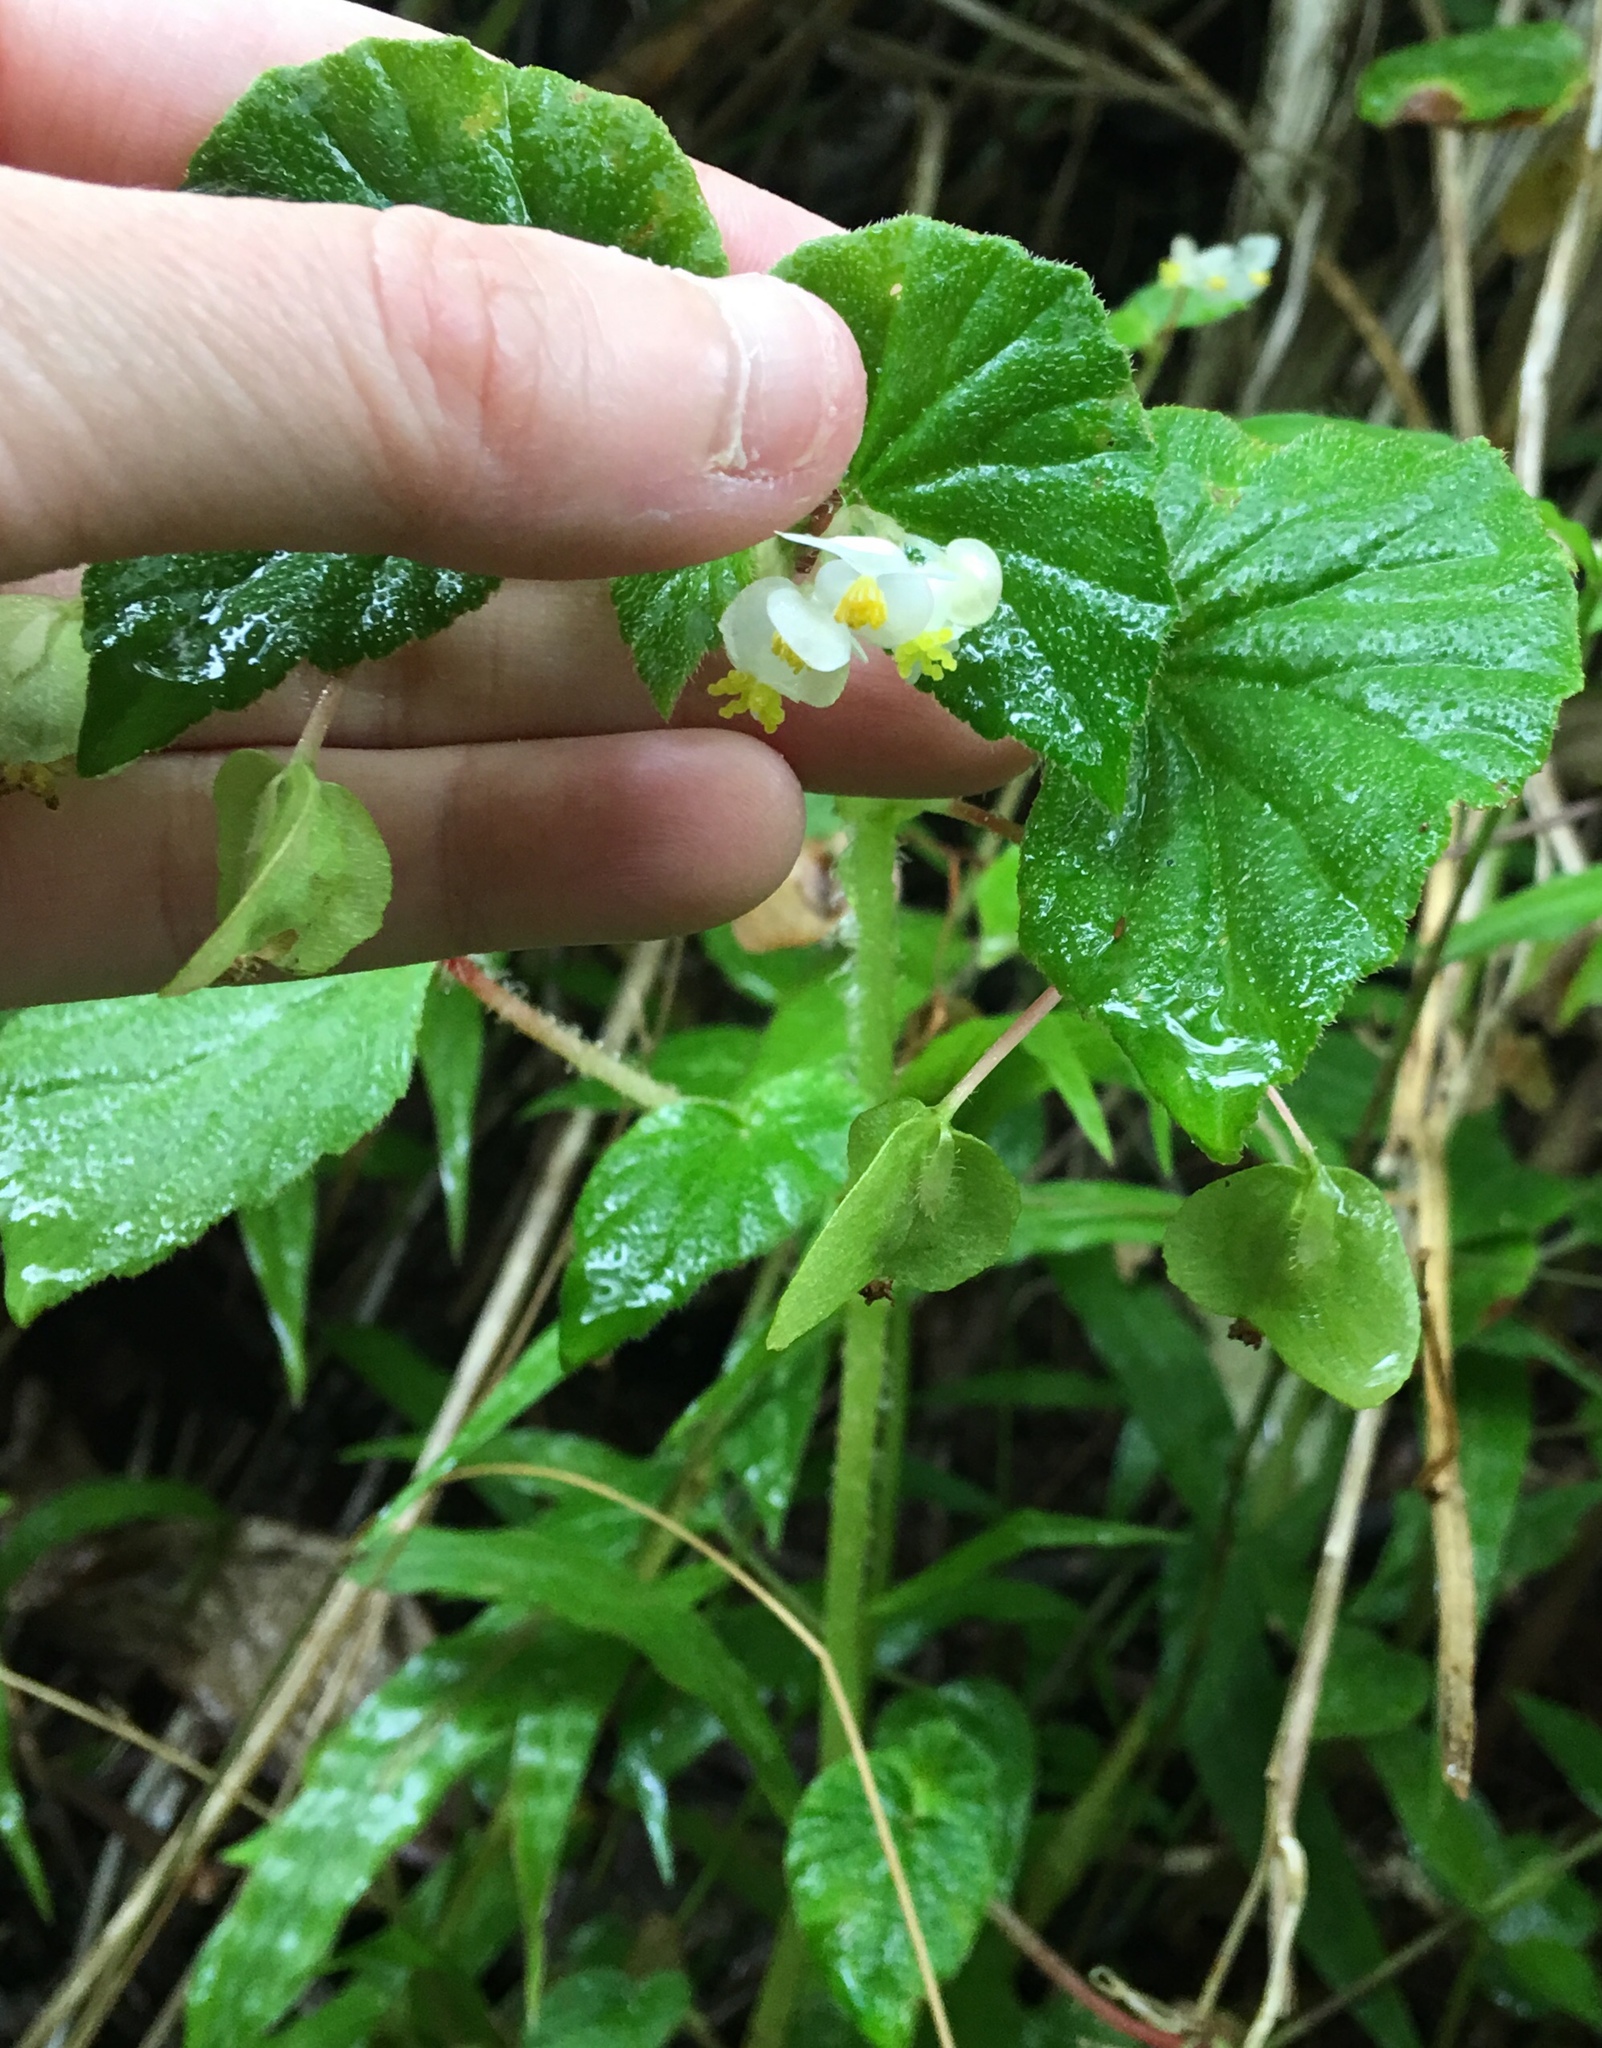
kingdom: Plantae
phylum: Tracheophyta
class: Magnoliopsida
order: Cucurbitales
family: Begoniaceae
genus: Begonia
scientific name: Begonia hirtella
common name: Brazilian begonia
